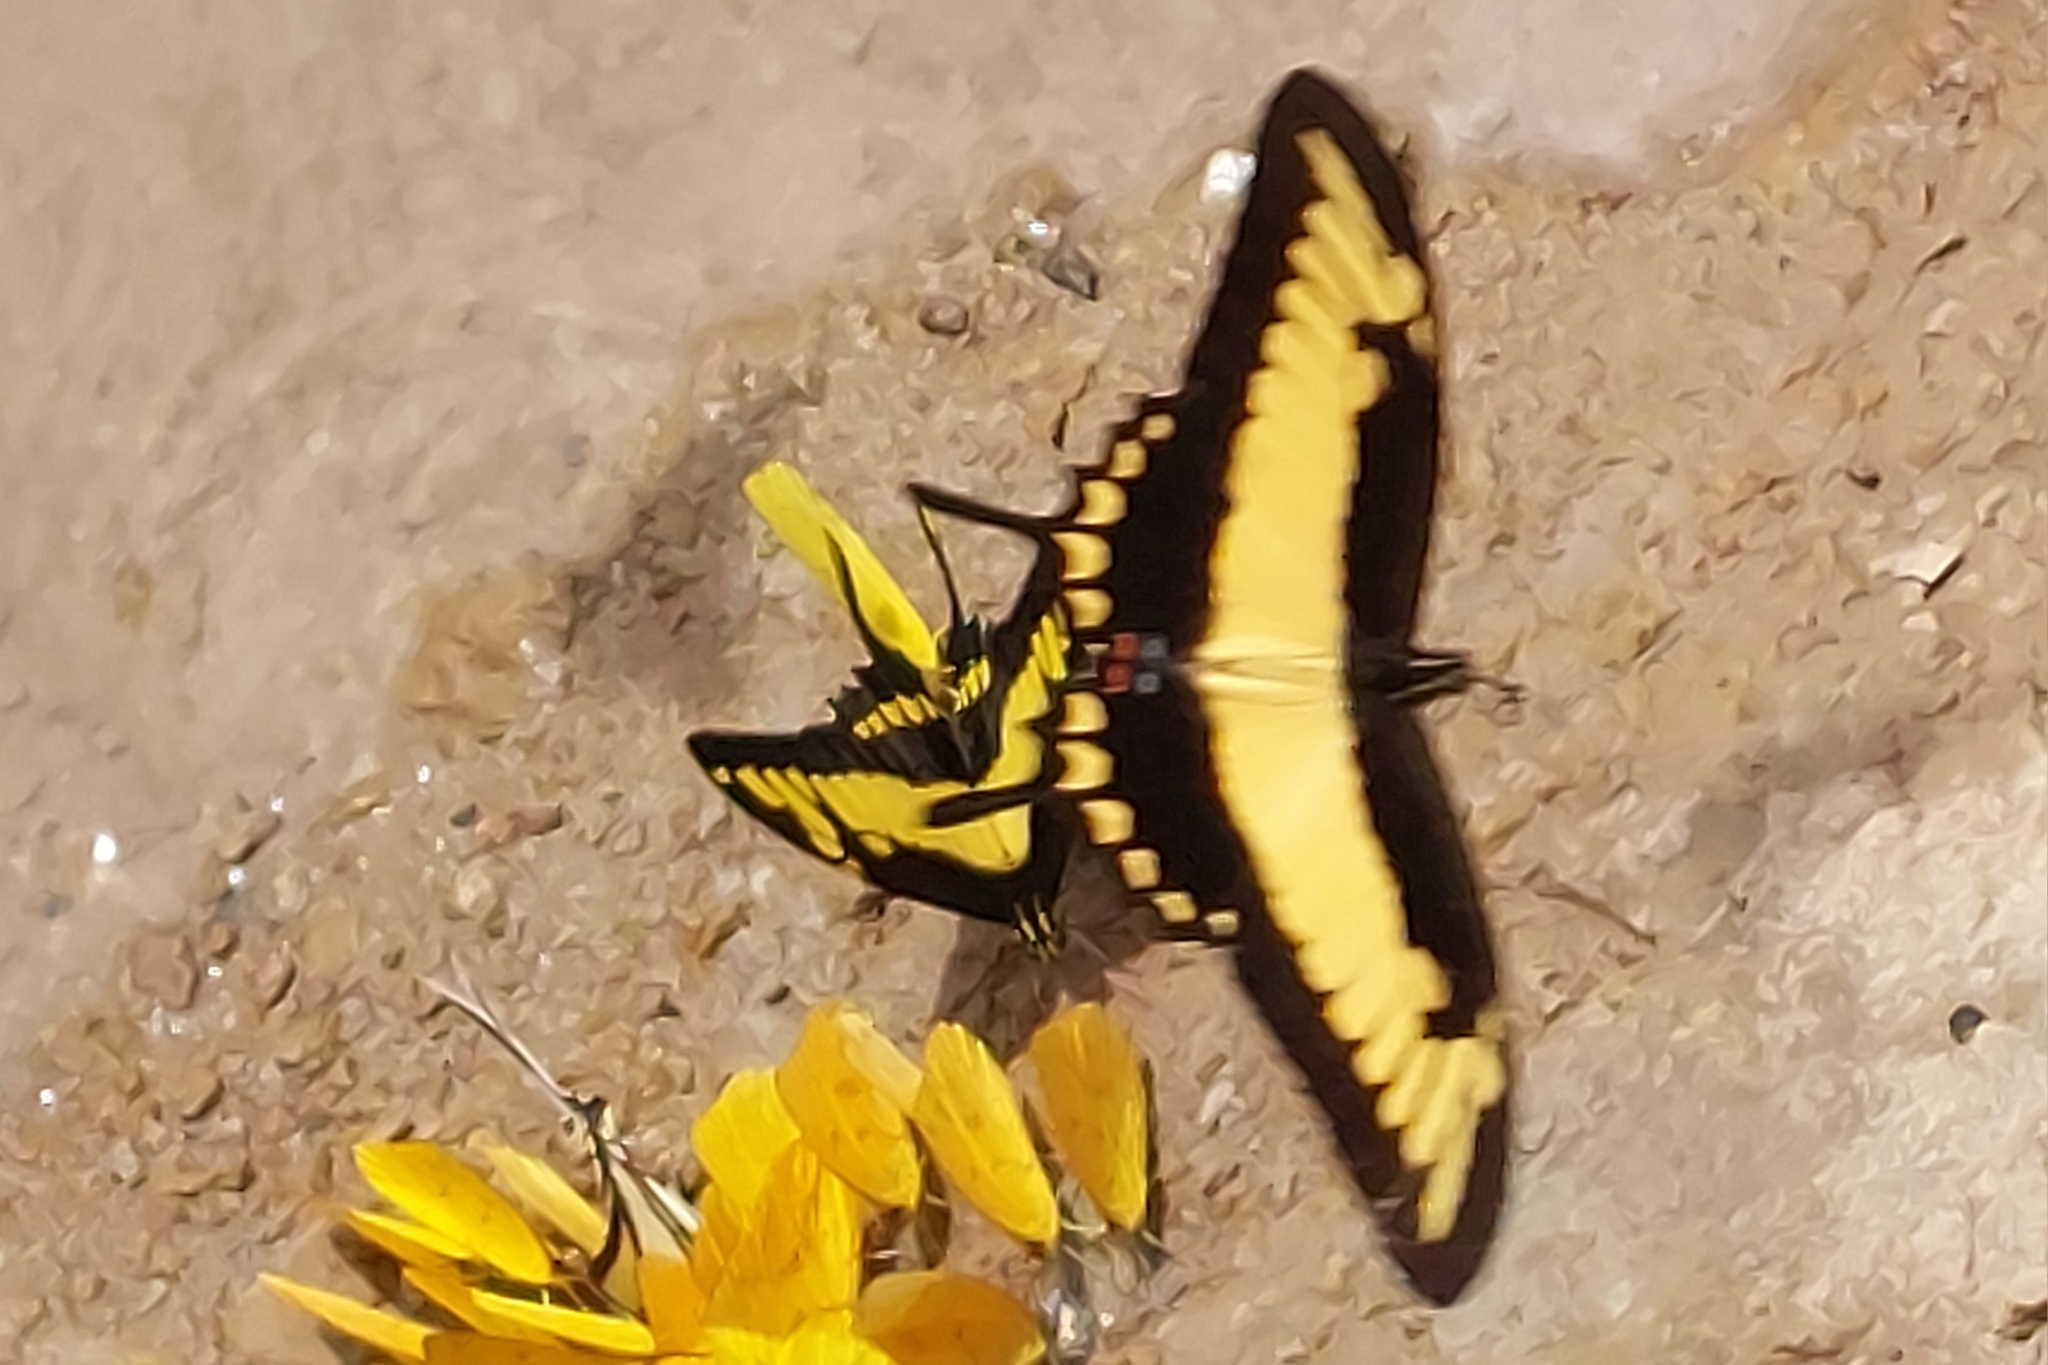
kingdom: Animalia
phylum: Arthropoda
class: Insecta
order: Lepidoptera
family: Papilionidae
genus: Papilio
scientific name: Papilio astyalus
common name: Astyalus swallowtail
